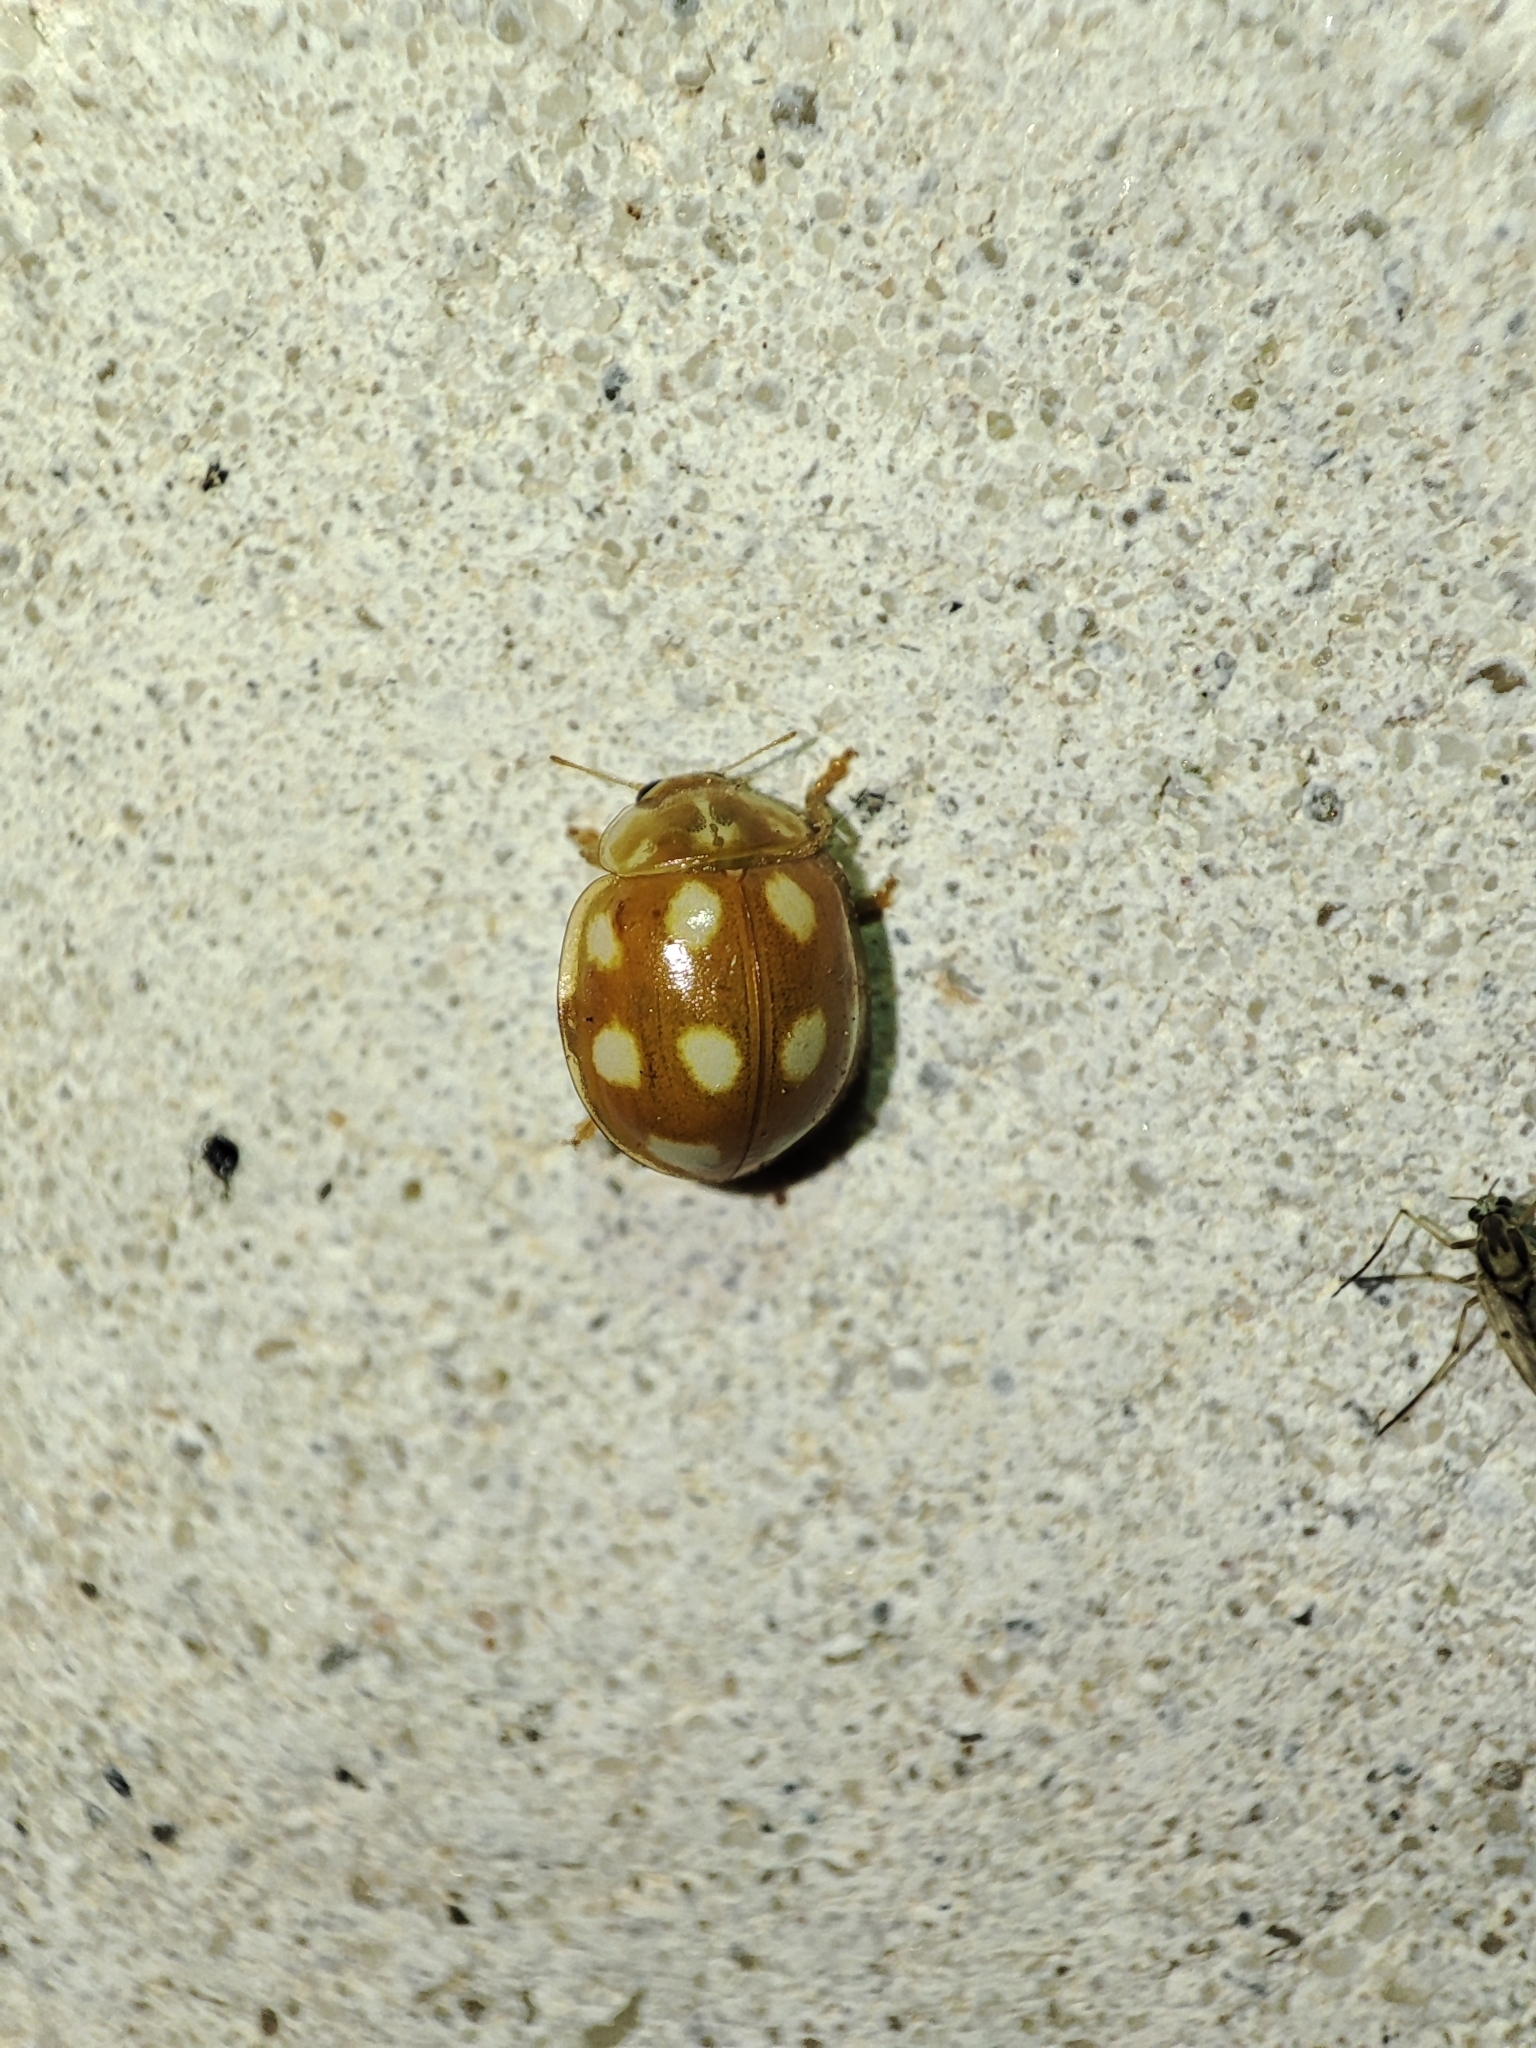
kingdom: Animalia
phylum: Arthropoda
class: Insecta
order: Coleoptera
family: Coccinellidae
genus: Calvia
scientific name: Calvia decemguttata
